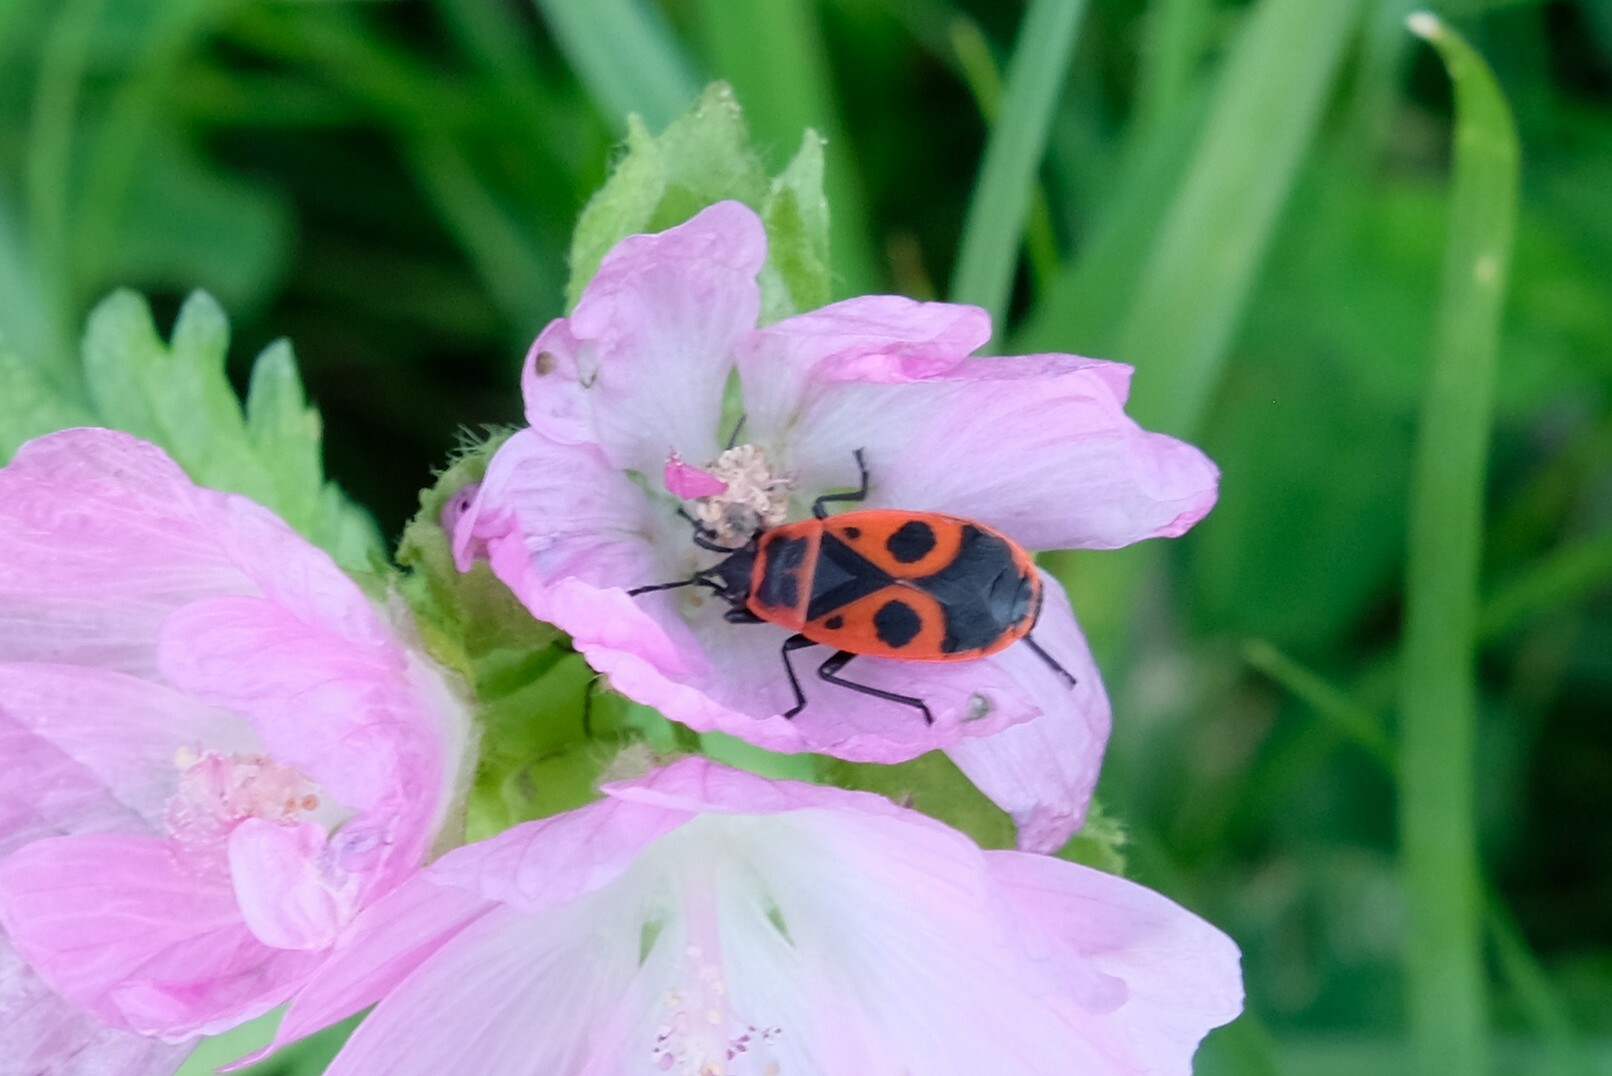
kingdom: Animalia
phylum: Arthropoda
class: Insecta
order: Hemiptera
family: Pyrrhocoridae
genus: Pyrrhocoris
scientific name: Pyrrhocoris apterus
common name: Firebug
